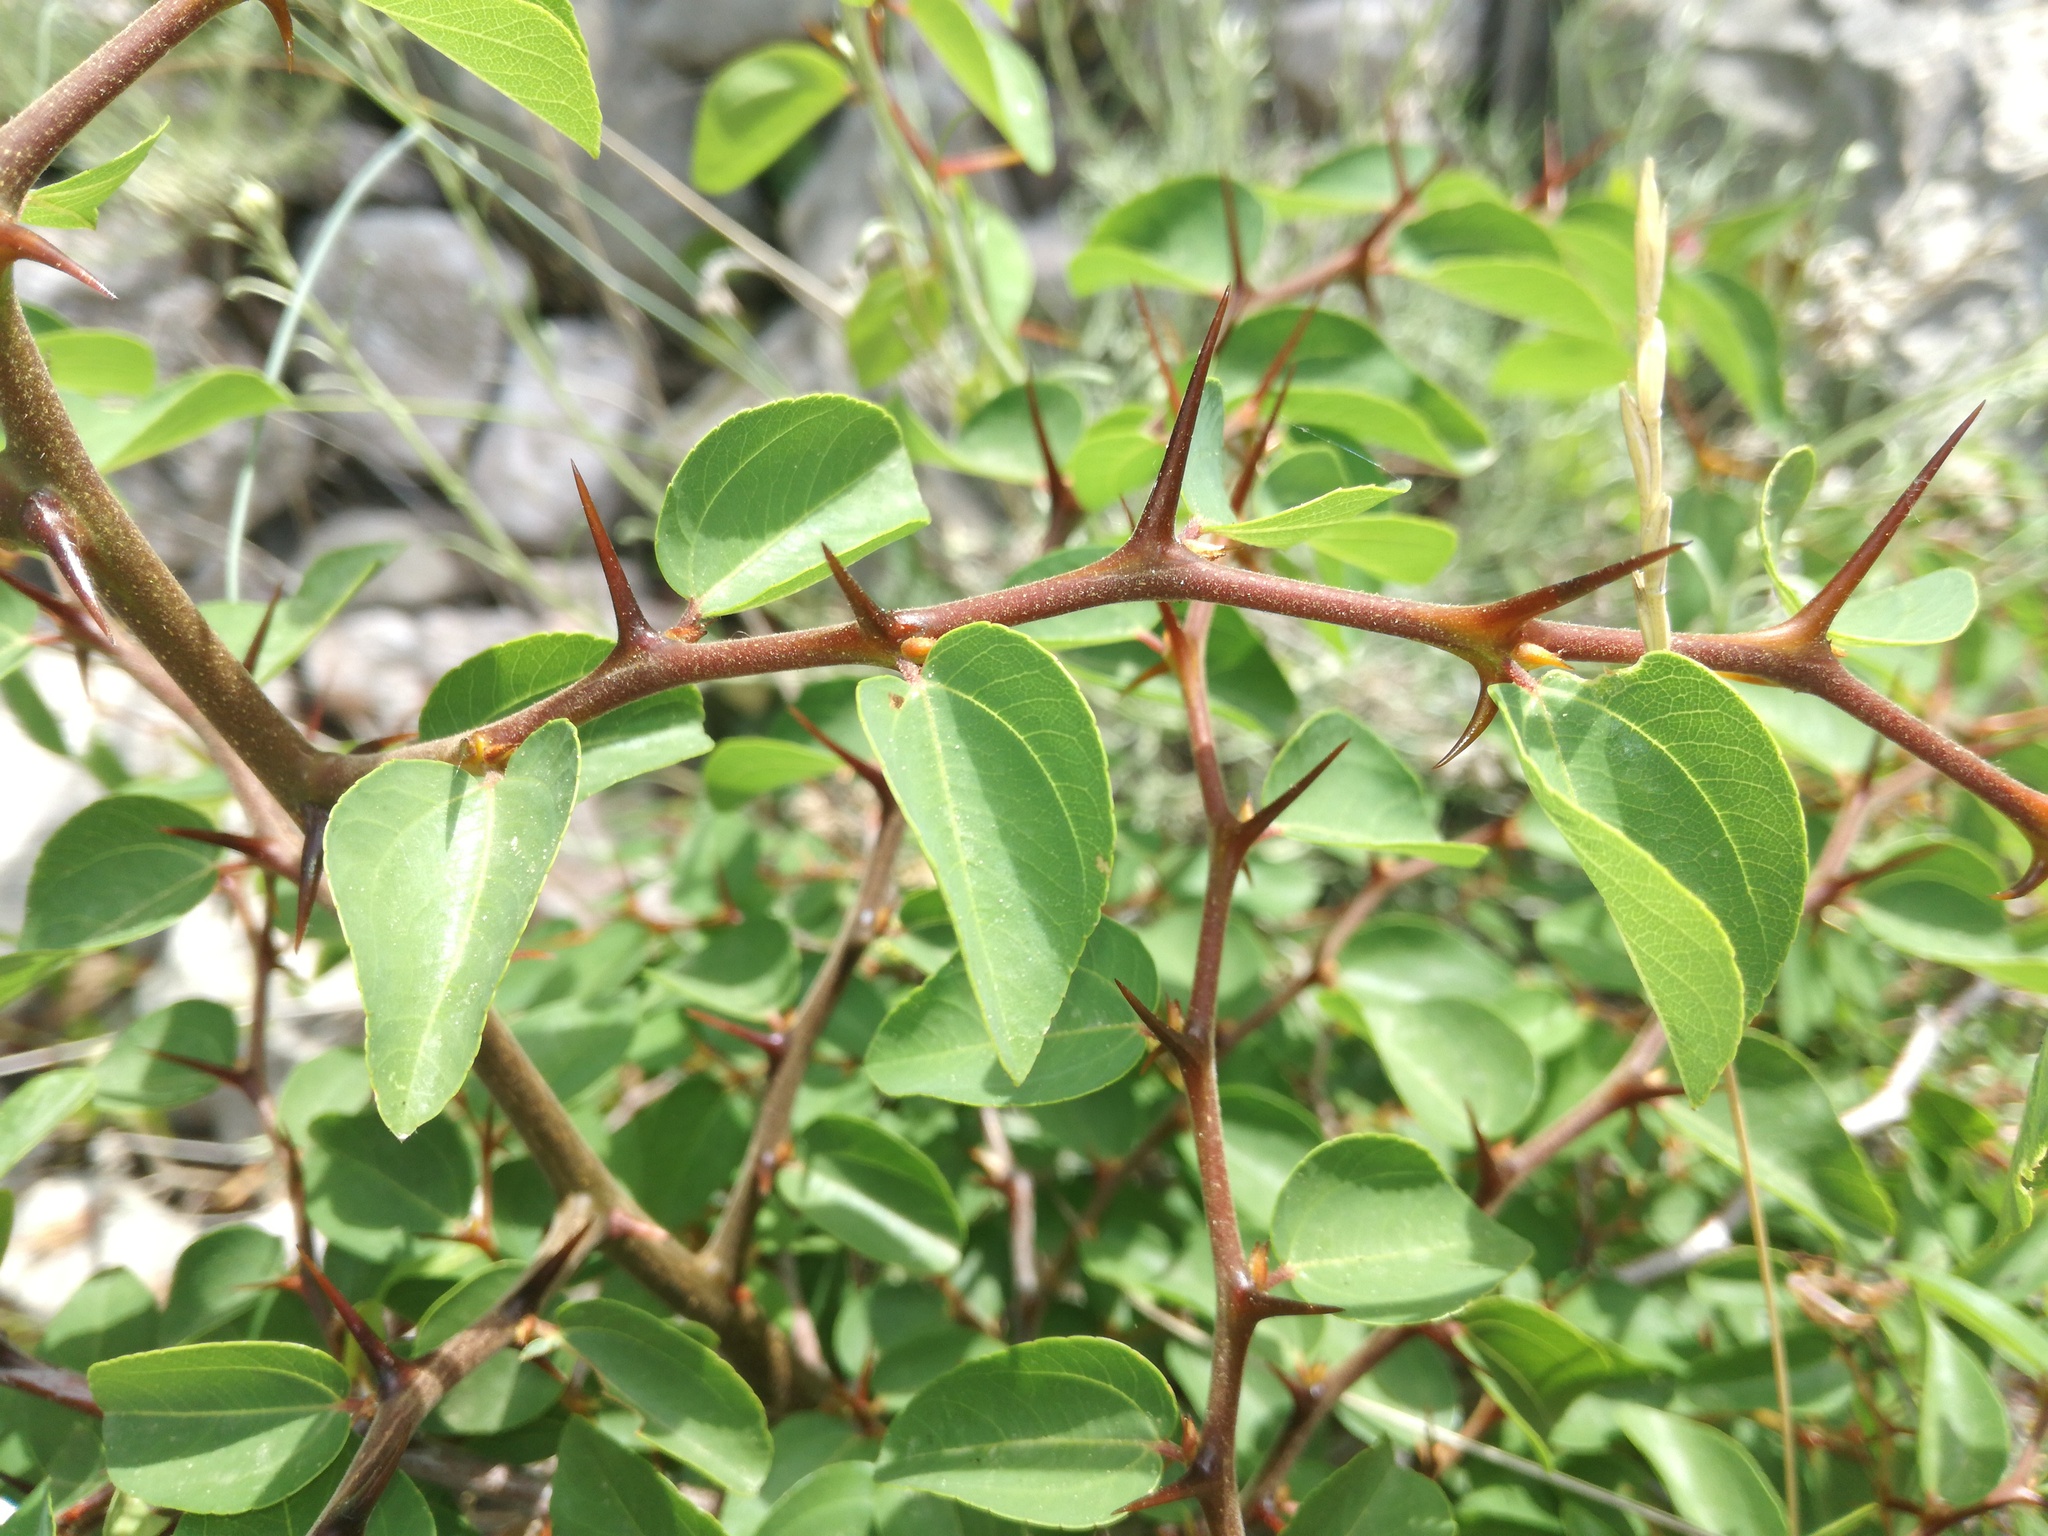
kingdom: Plantae
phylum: Tracheophyta
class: Magnoliopsida
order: Rosales
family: Rhamnaceae
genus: Paliurus
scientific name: Paliurus spina-christi
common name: Jeruselem thorn
